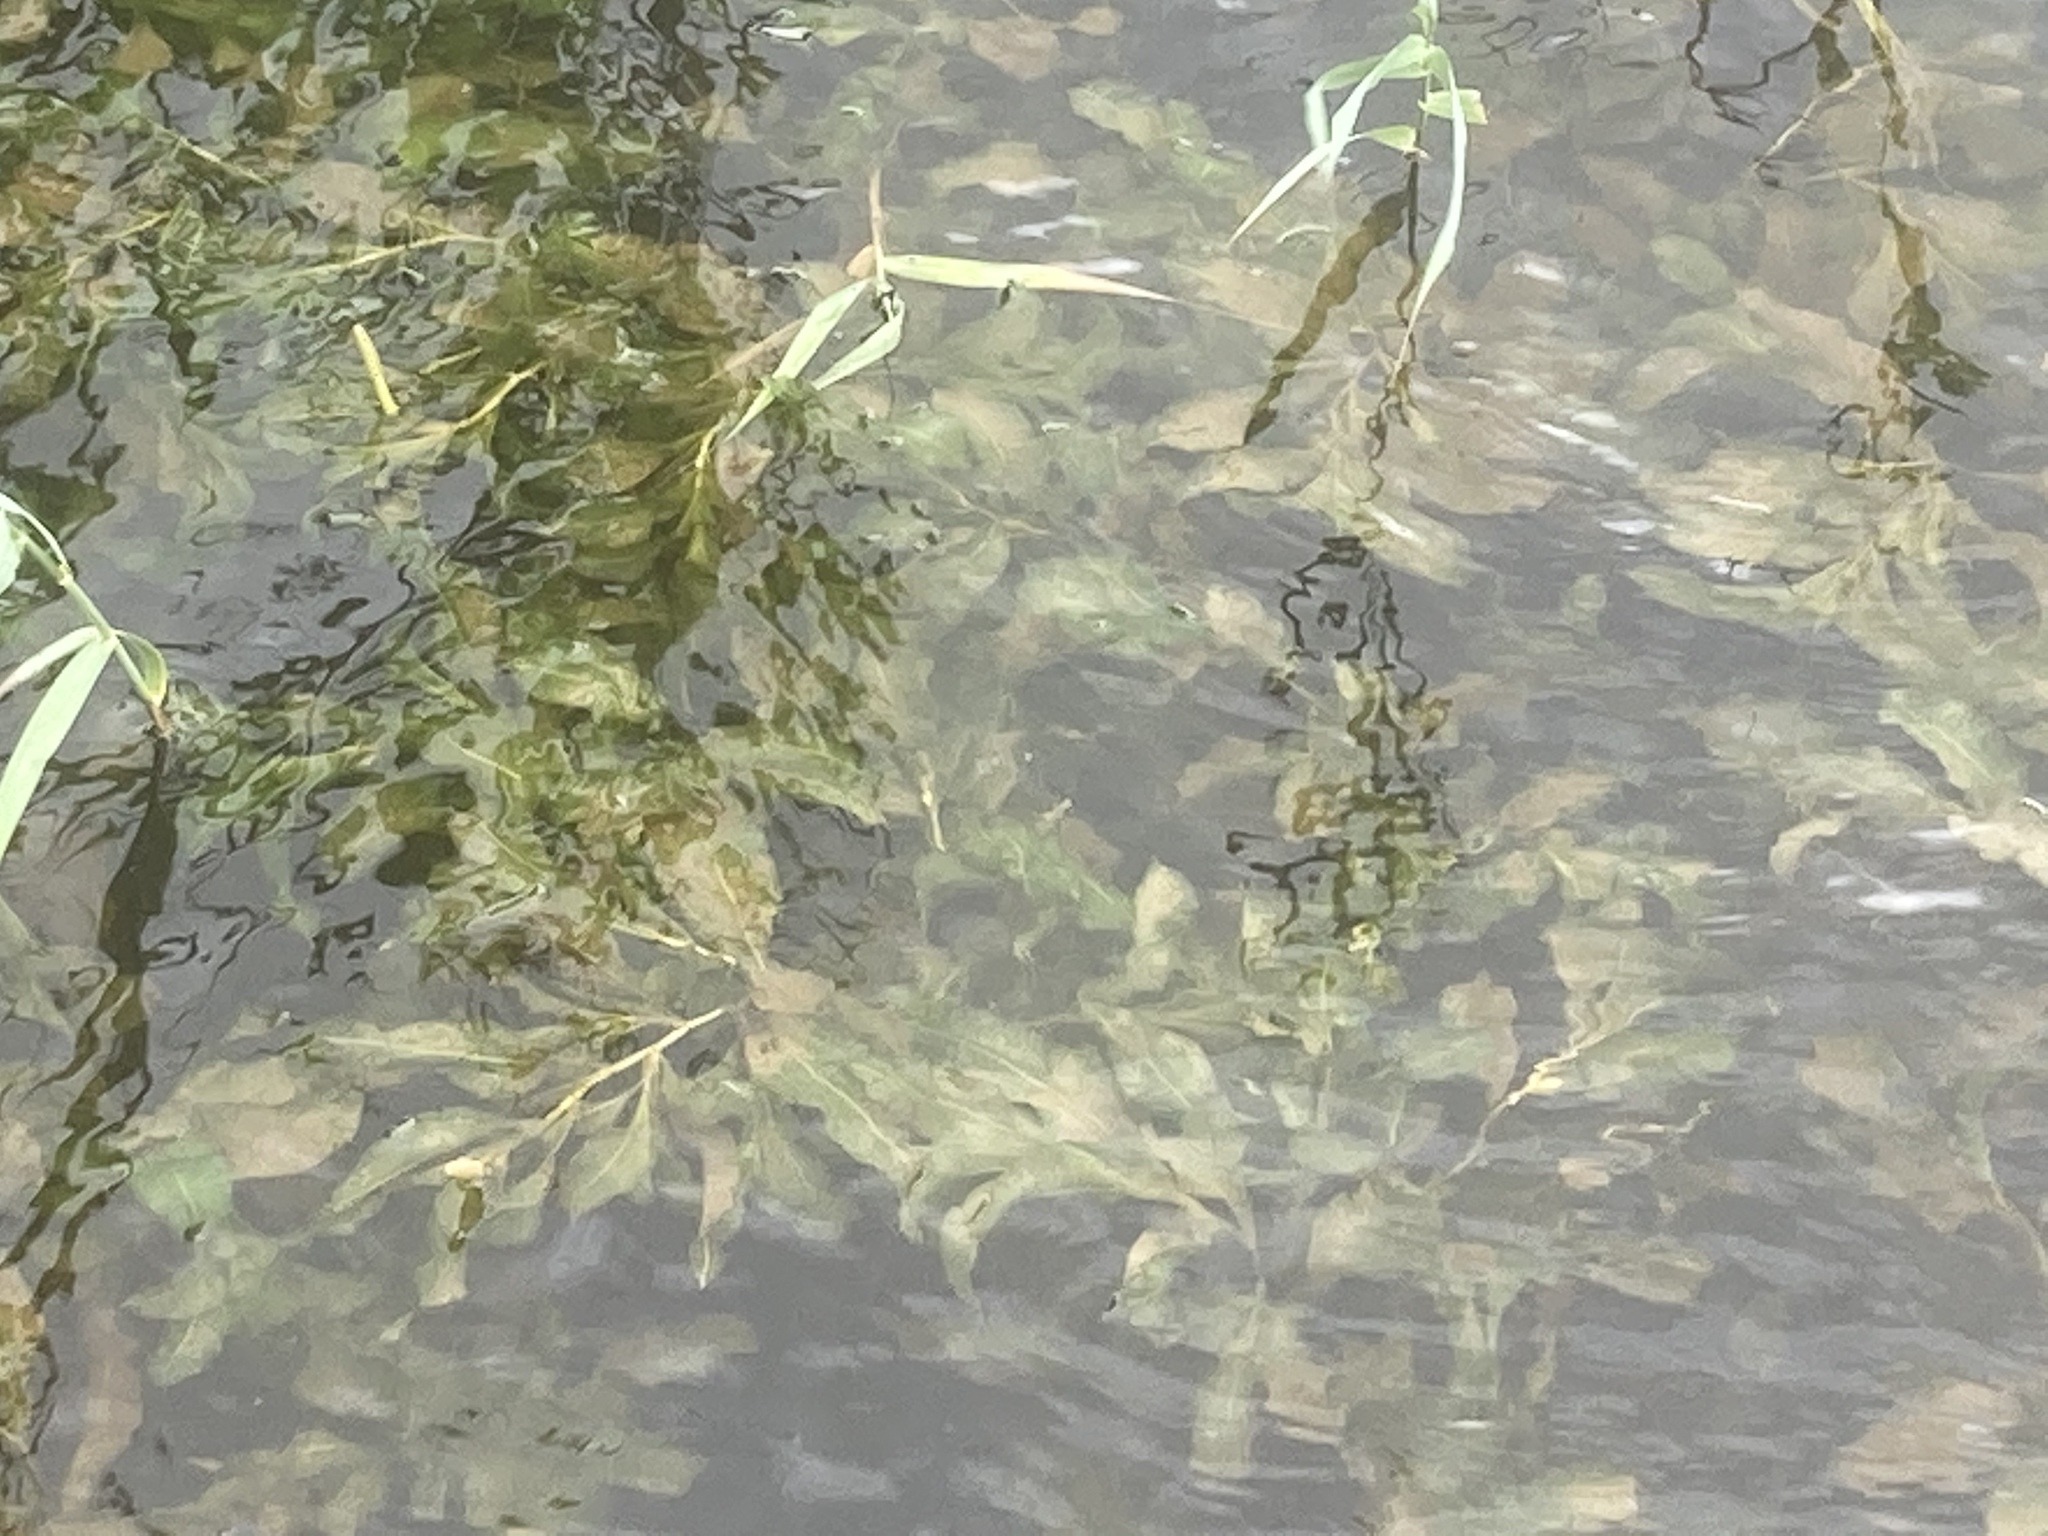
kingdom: Plantae
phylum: Tracheophyta
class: Liliopsida
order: Alismatales
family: Potamogetonaceae
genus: Potamogeton
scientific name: Potamogeton lucens
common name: Shining pondweed
